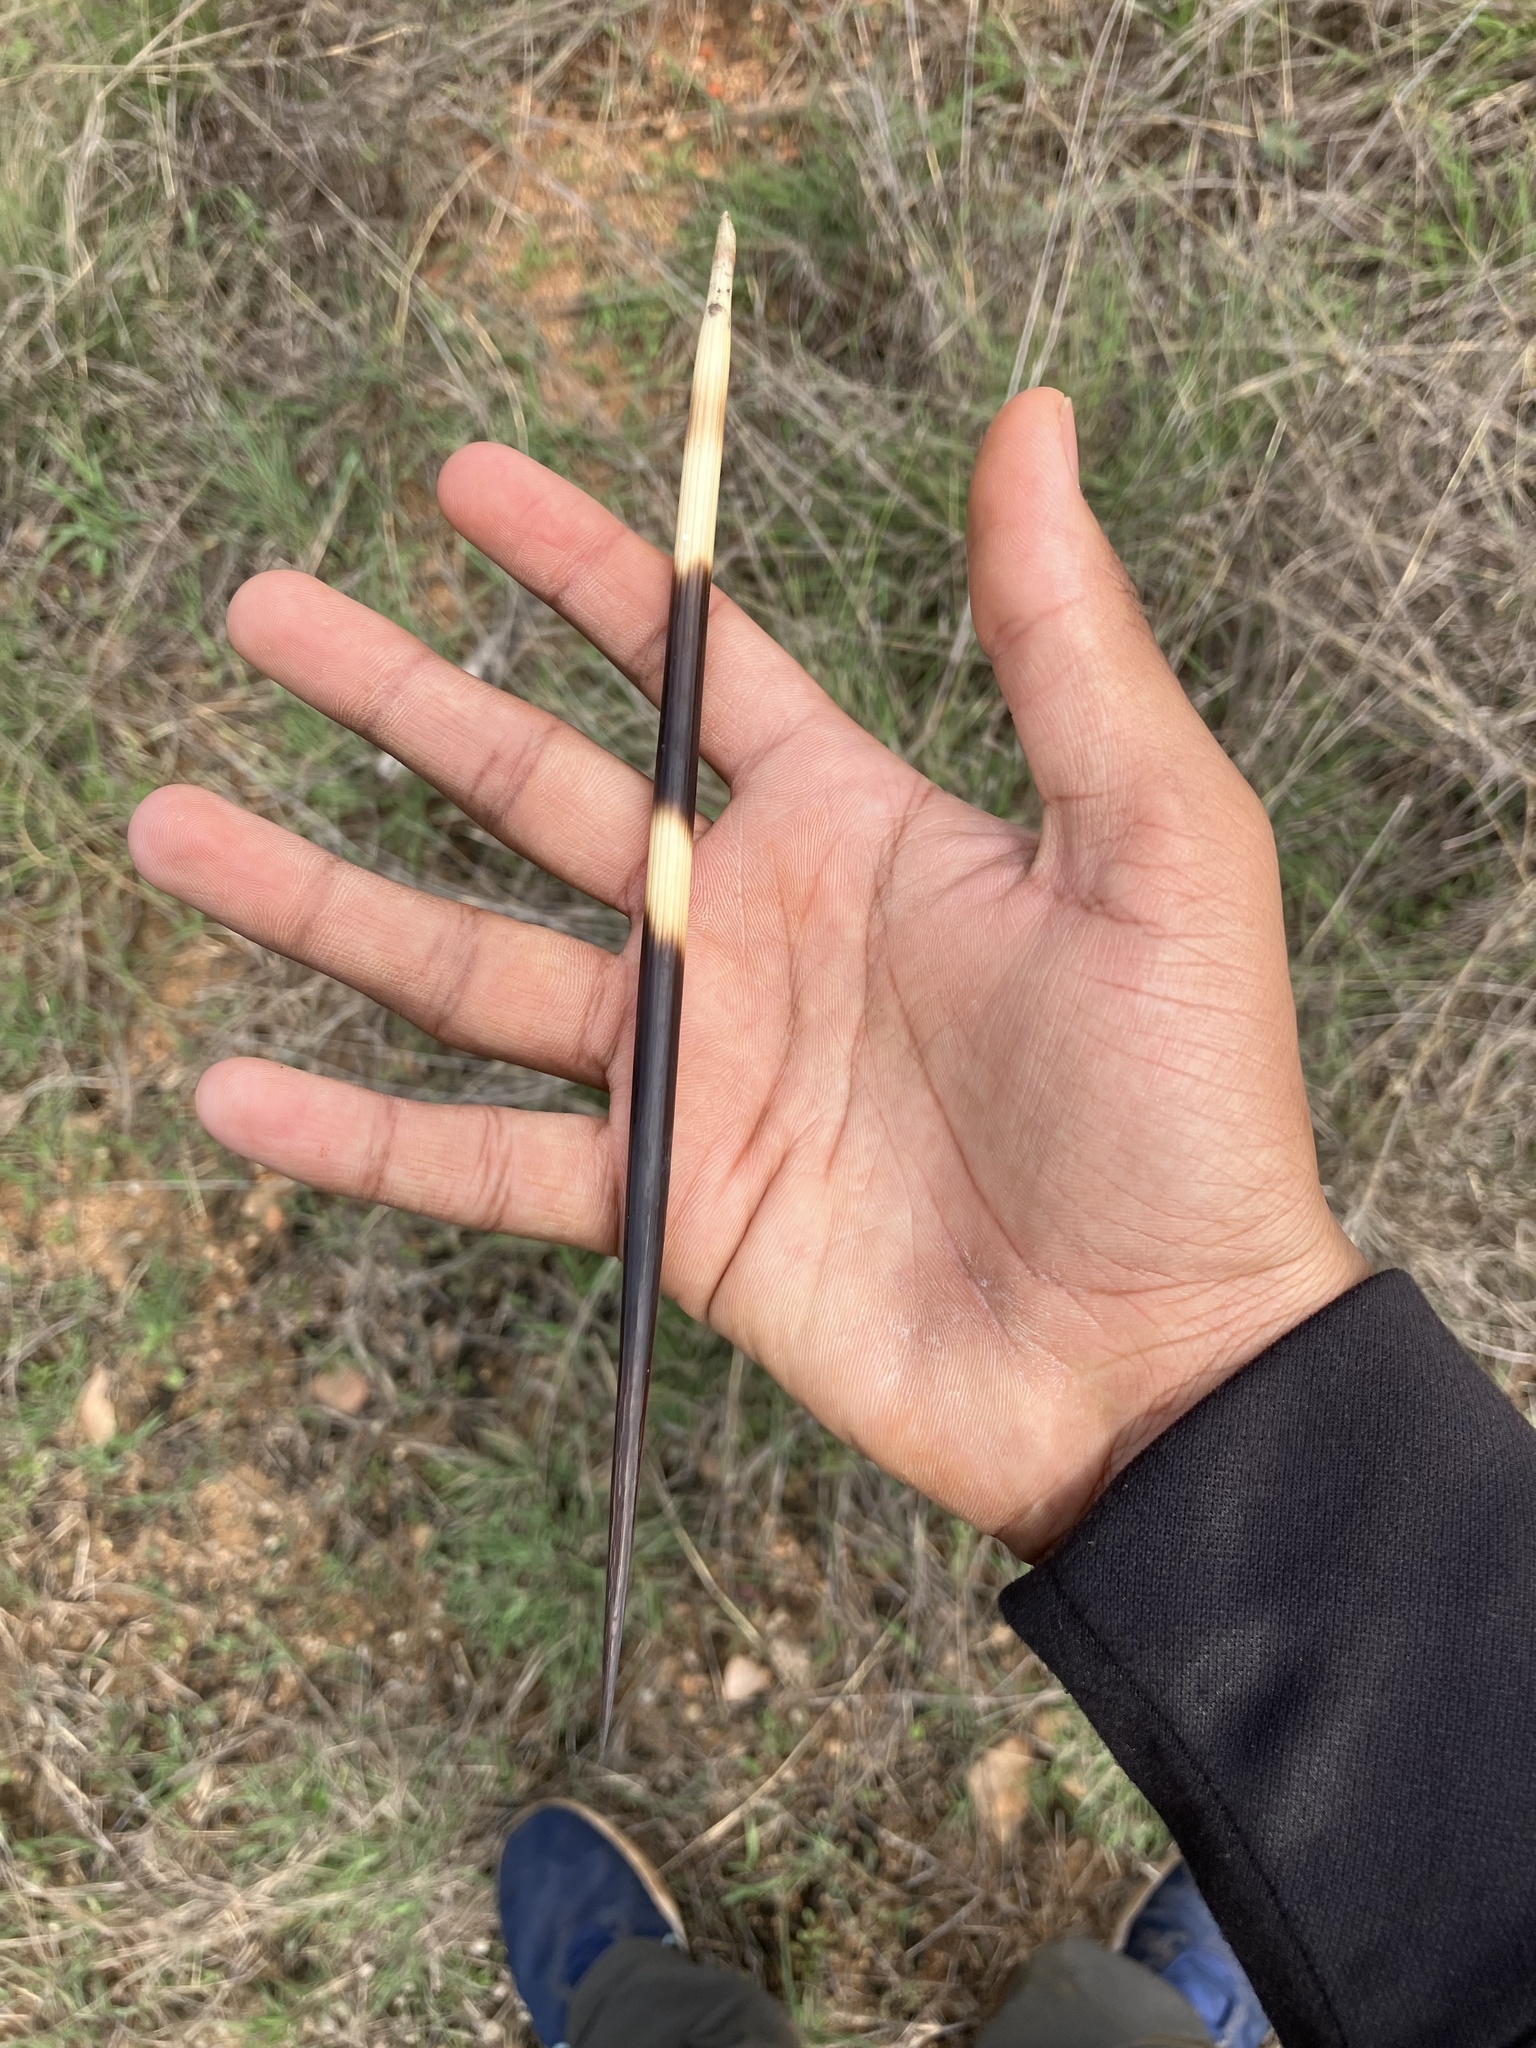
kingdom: Animalia
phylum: Chordata
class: Mammalia
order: Rodentia
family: Hystricidae
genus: Hystrix
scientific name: Hystrix indica
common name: Indian crested porcupine
